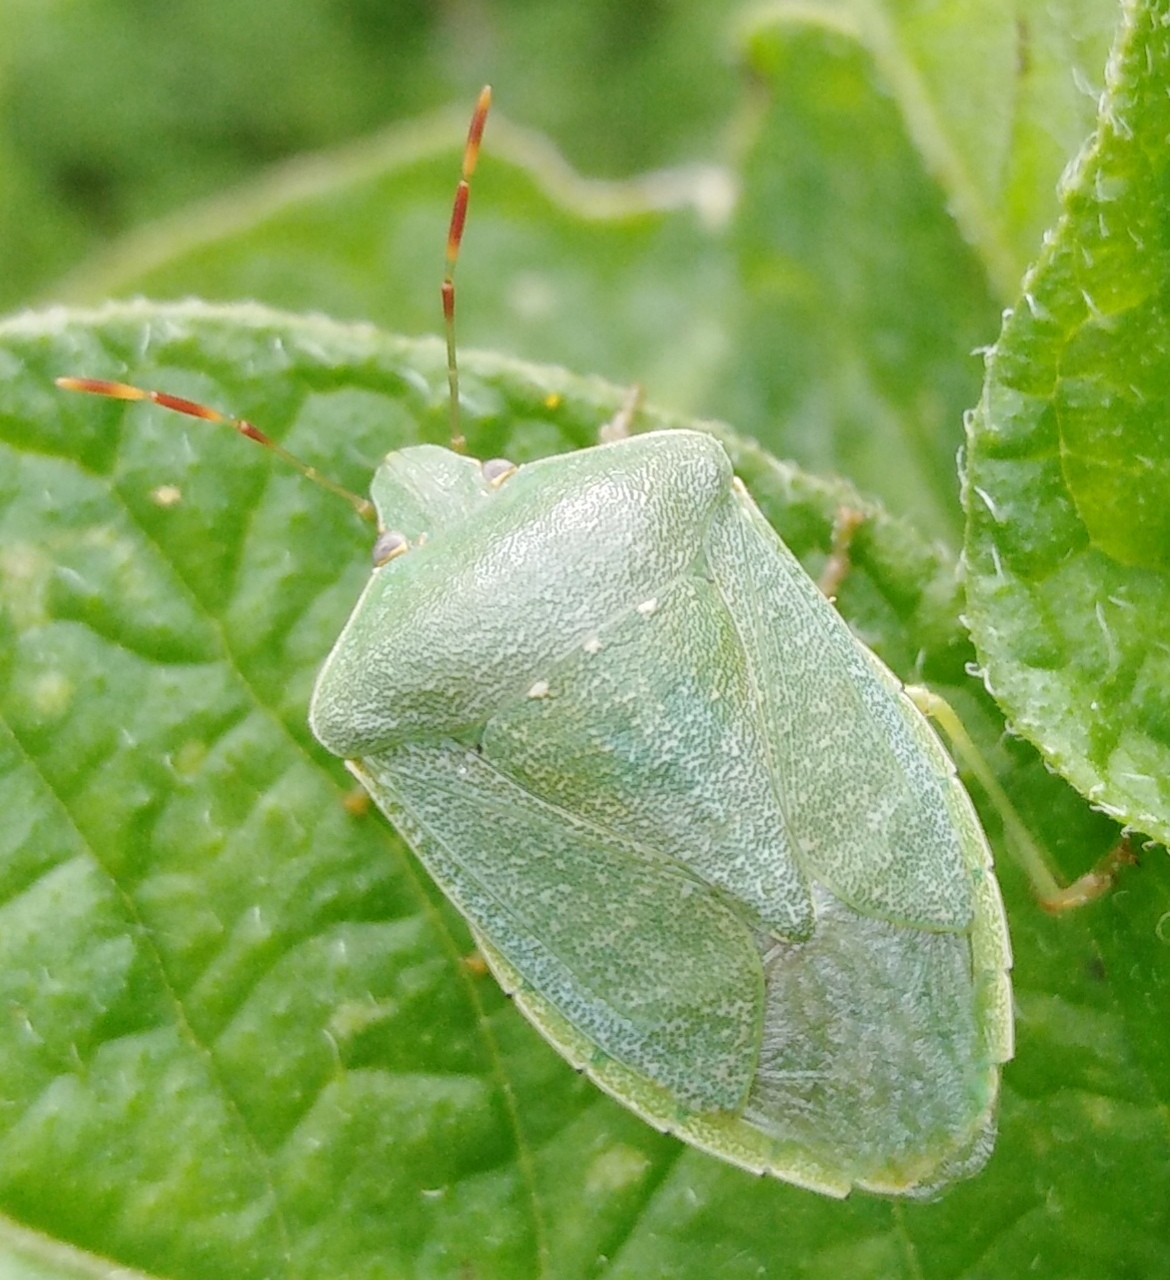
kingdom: Animalia
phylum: Arthropoda
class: Insecta
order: Hemiptera
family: Pentatomidae
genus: Nezara
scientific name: Nezara viridula
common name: Southern green stink bug
